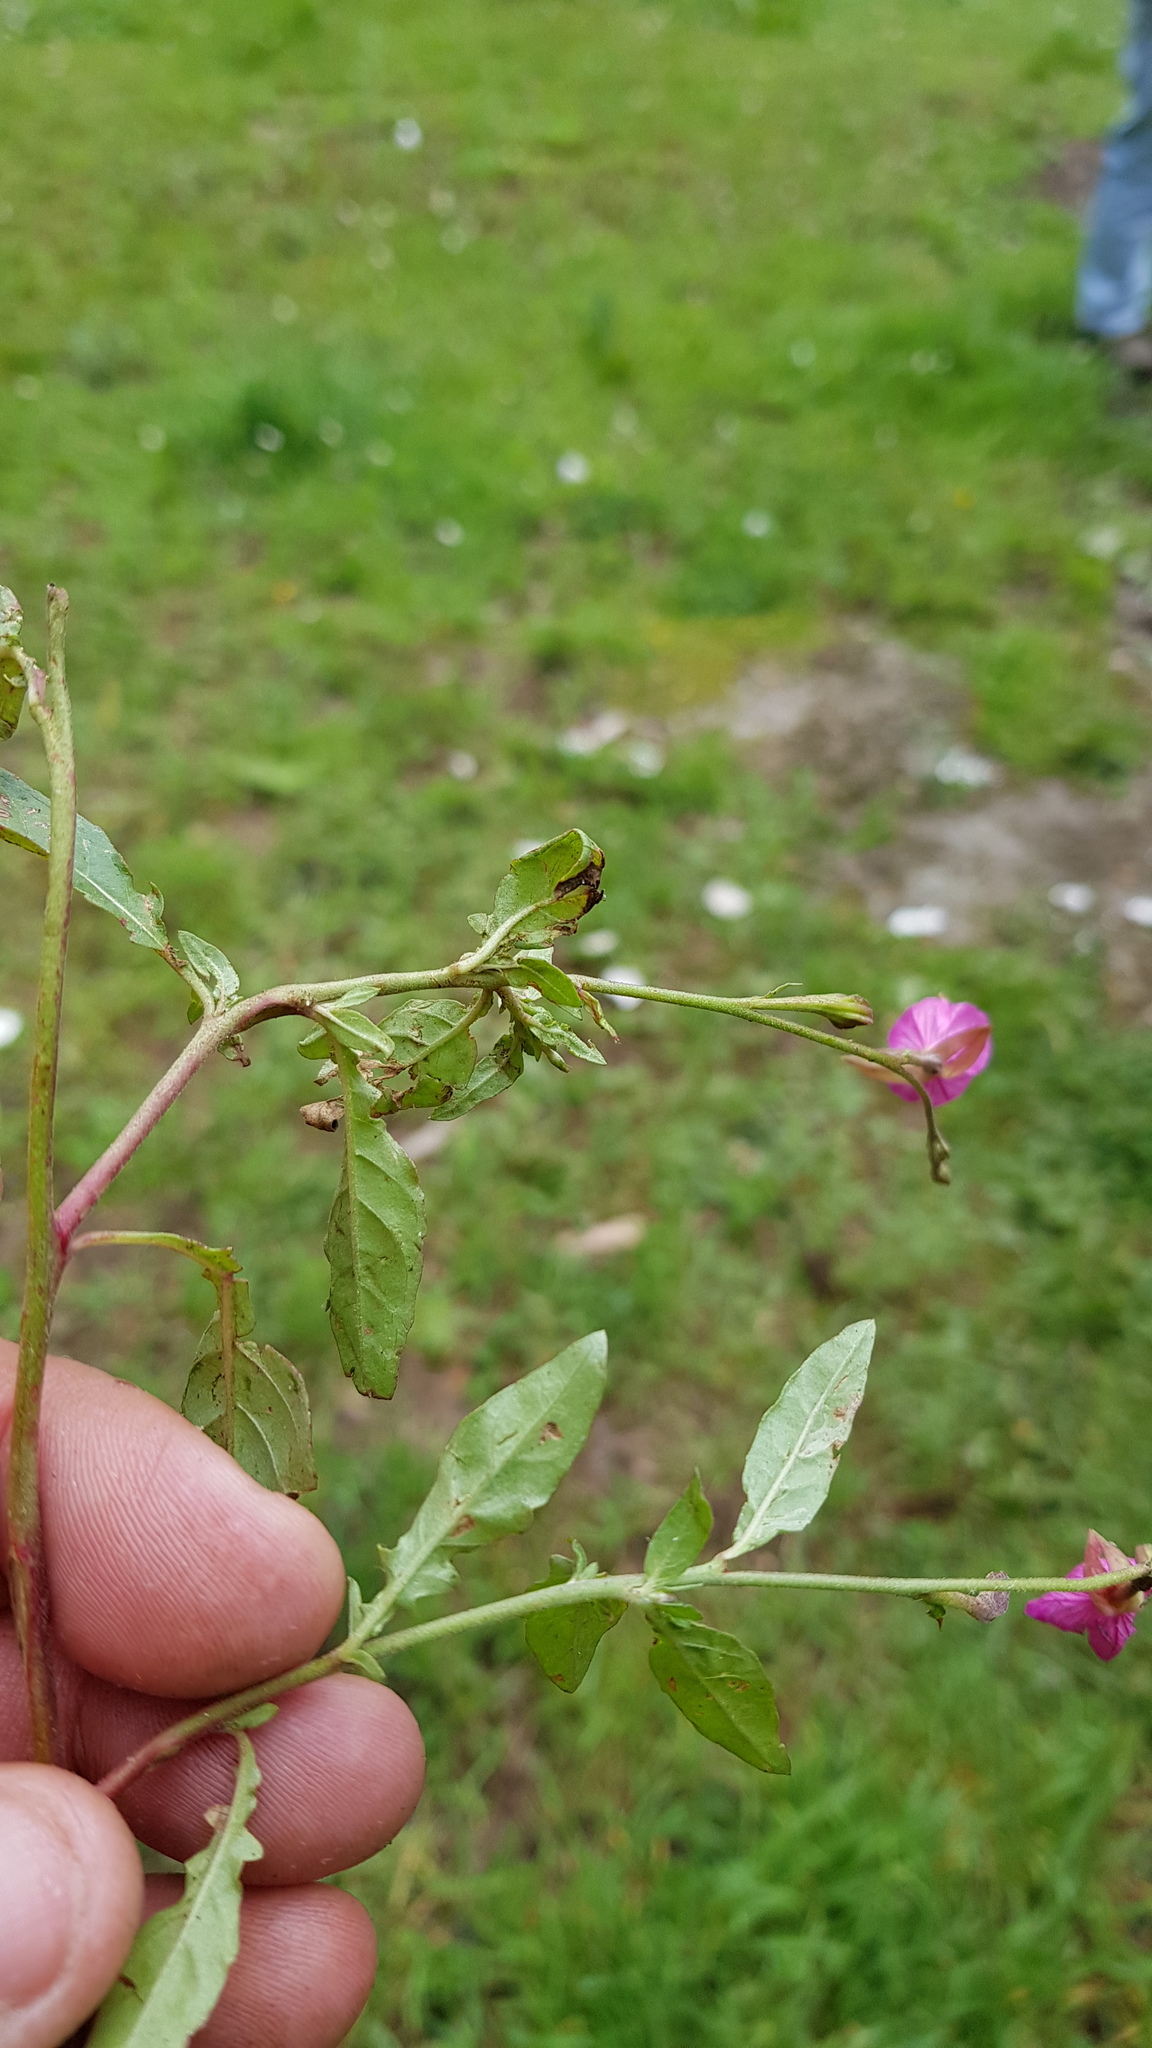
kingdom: Plantae
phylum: Tracheophyta
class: Magnoliopsida
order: Myrtales
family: Onagraceae
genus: Oenothera
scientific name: Oenothera rosea
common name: Rosy evening-primrose
